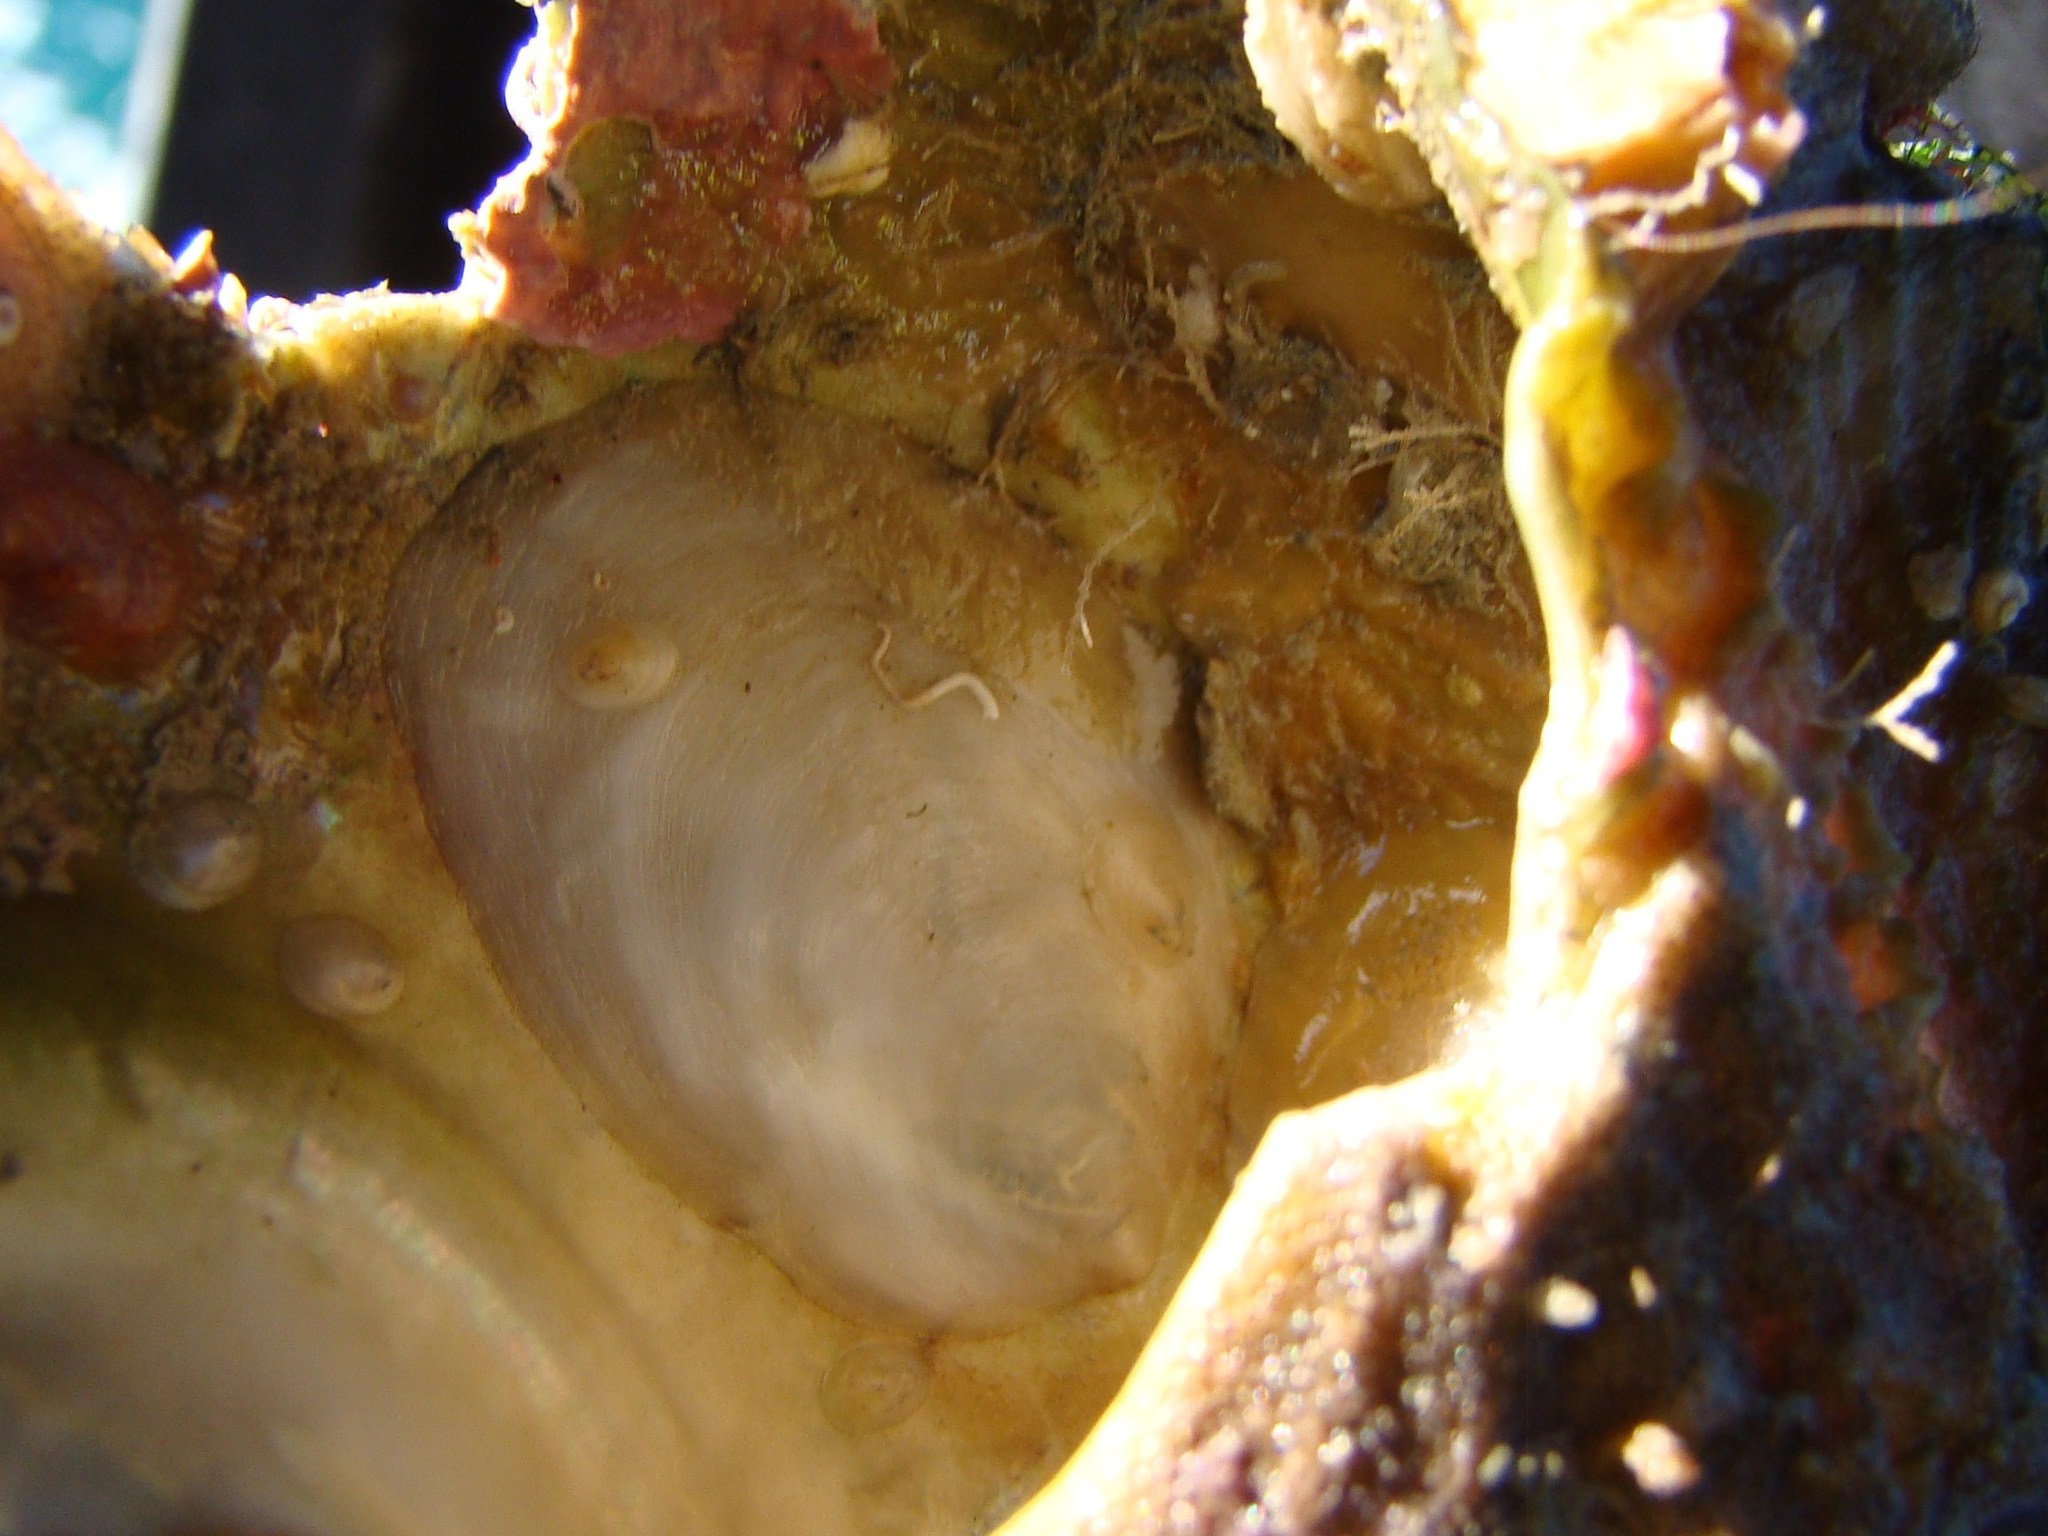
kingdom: Animalia
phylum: Mollusca
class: Gastropoda
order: Littorinimorpha
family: Calyptraeidae
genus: Maoricrypta
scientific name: Maoricrypta sodalis
